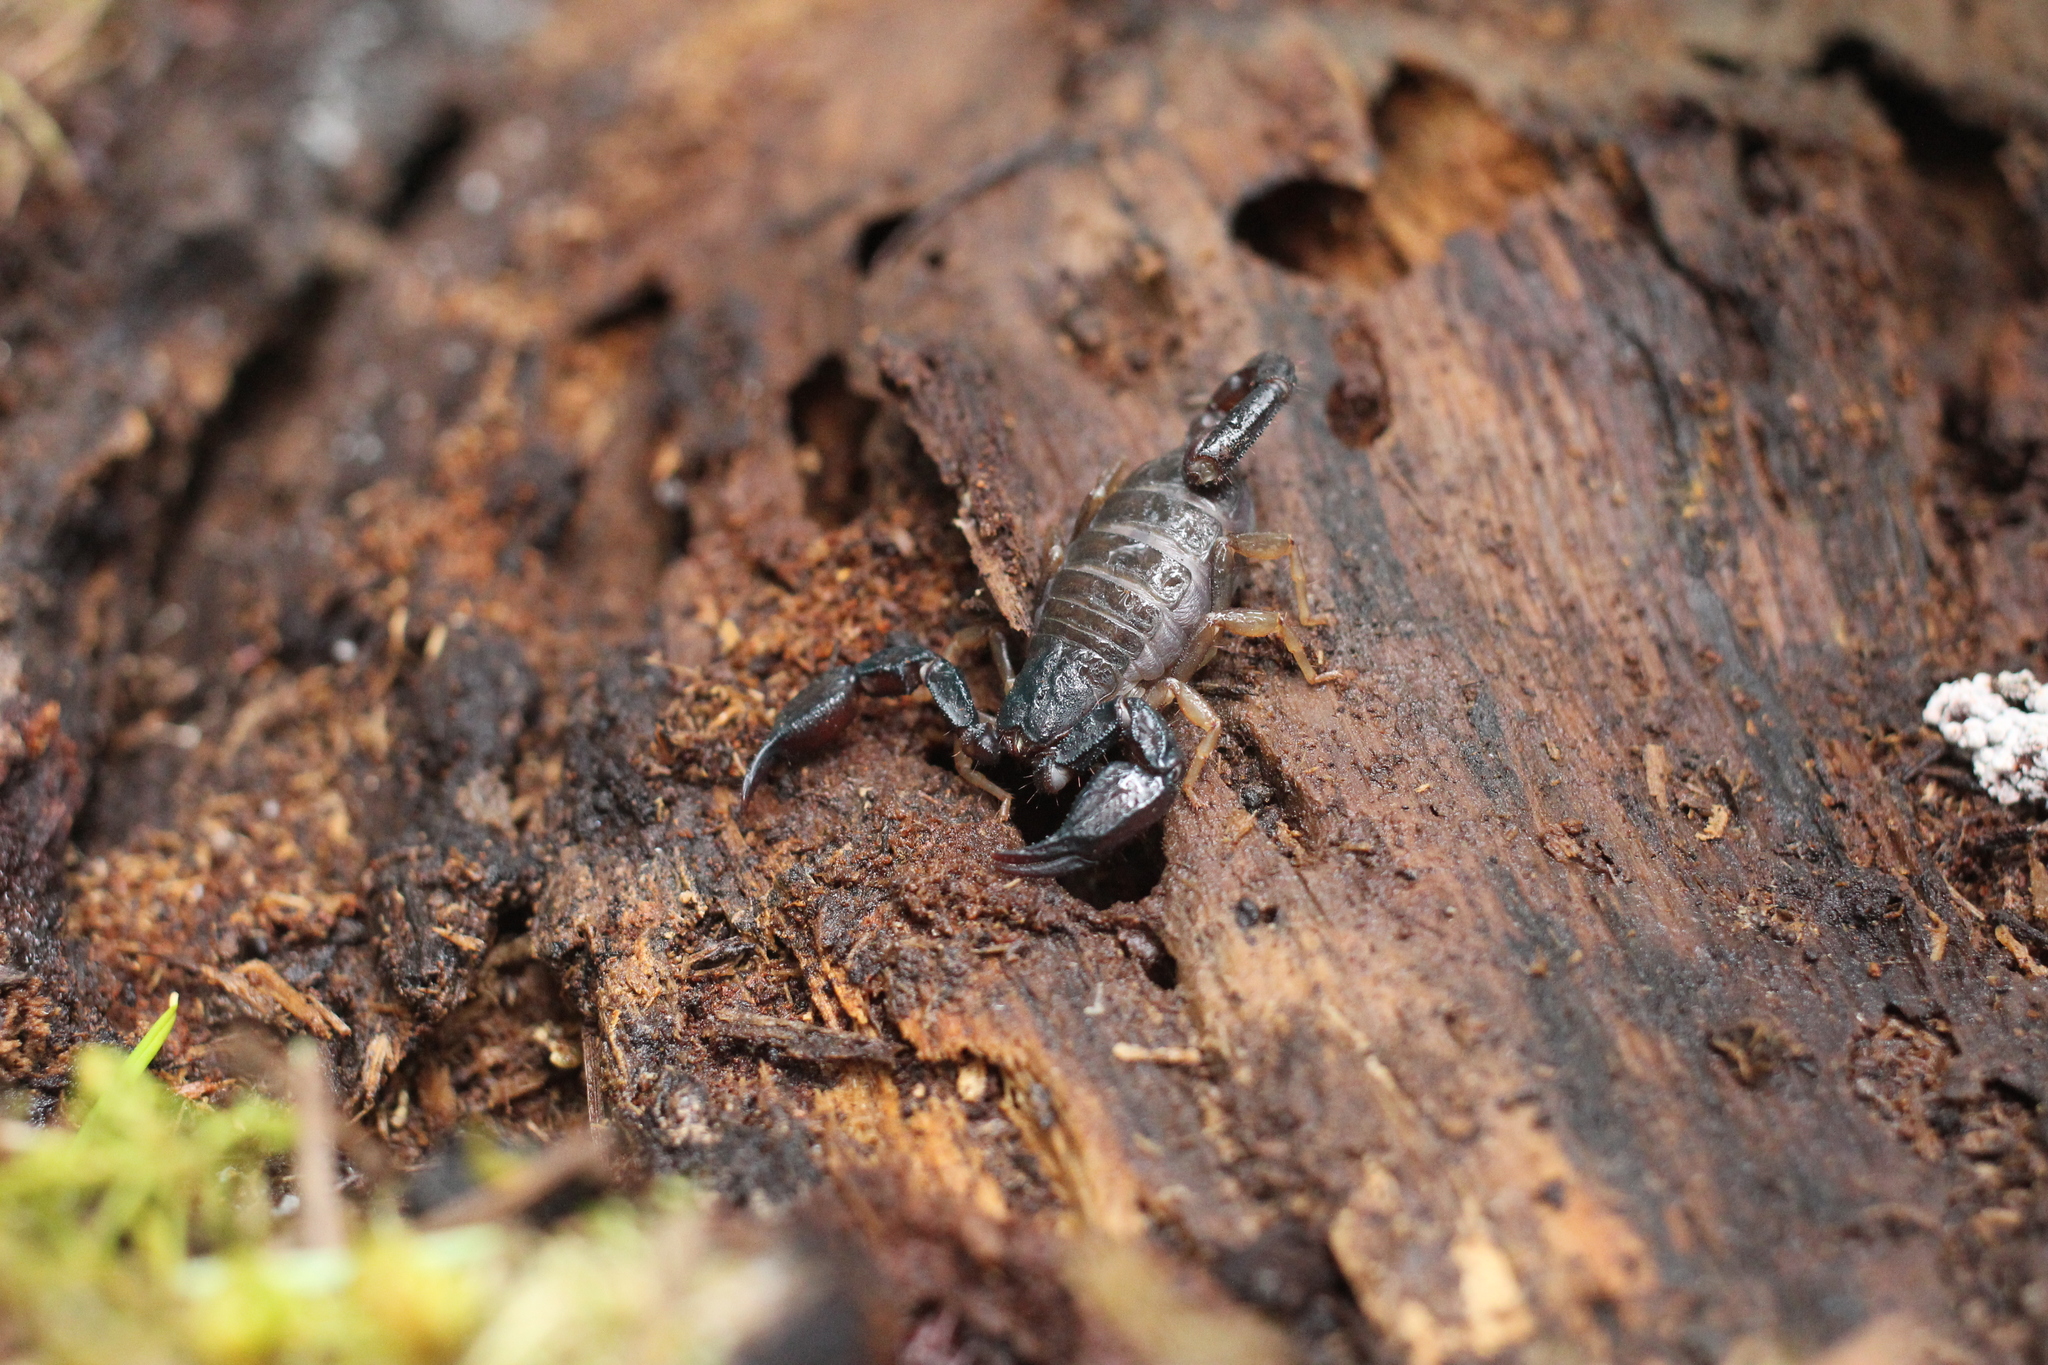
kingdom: Animalia
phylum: Arthropoda
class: Arachnida
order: Scorpiones
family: Chactidae
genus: Uroctonus
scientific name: Uroctonus mordax
